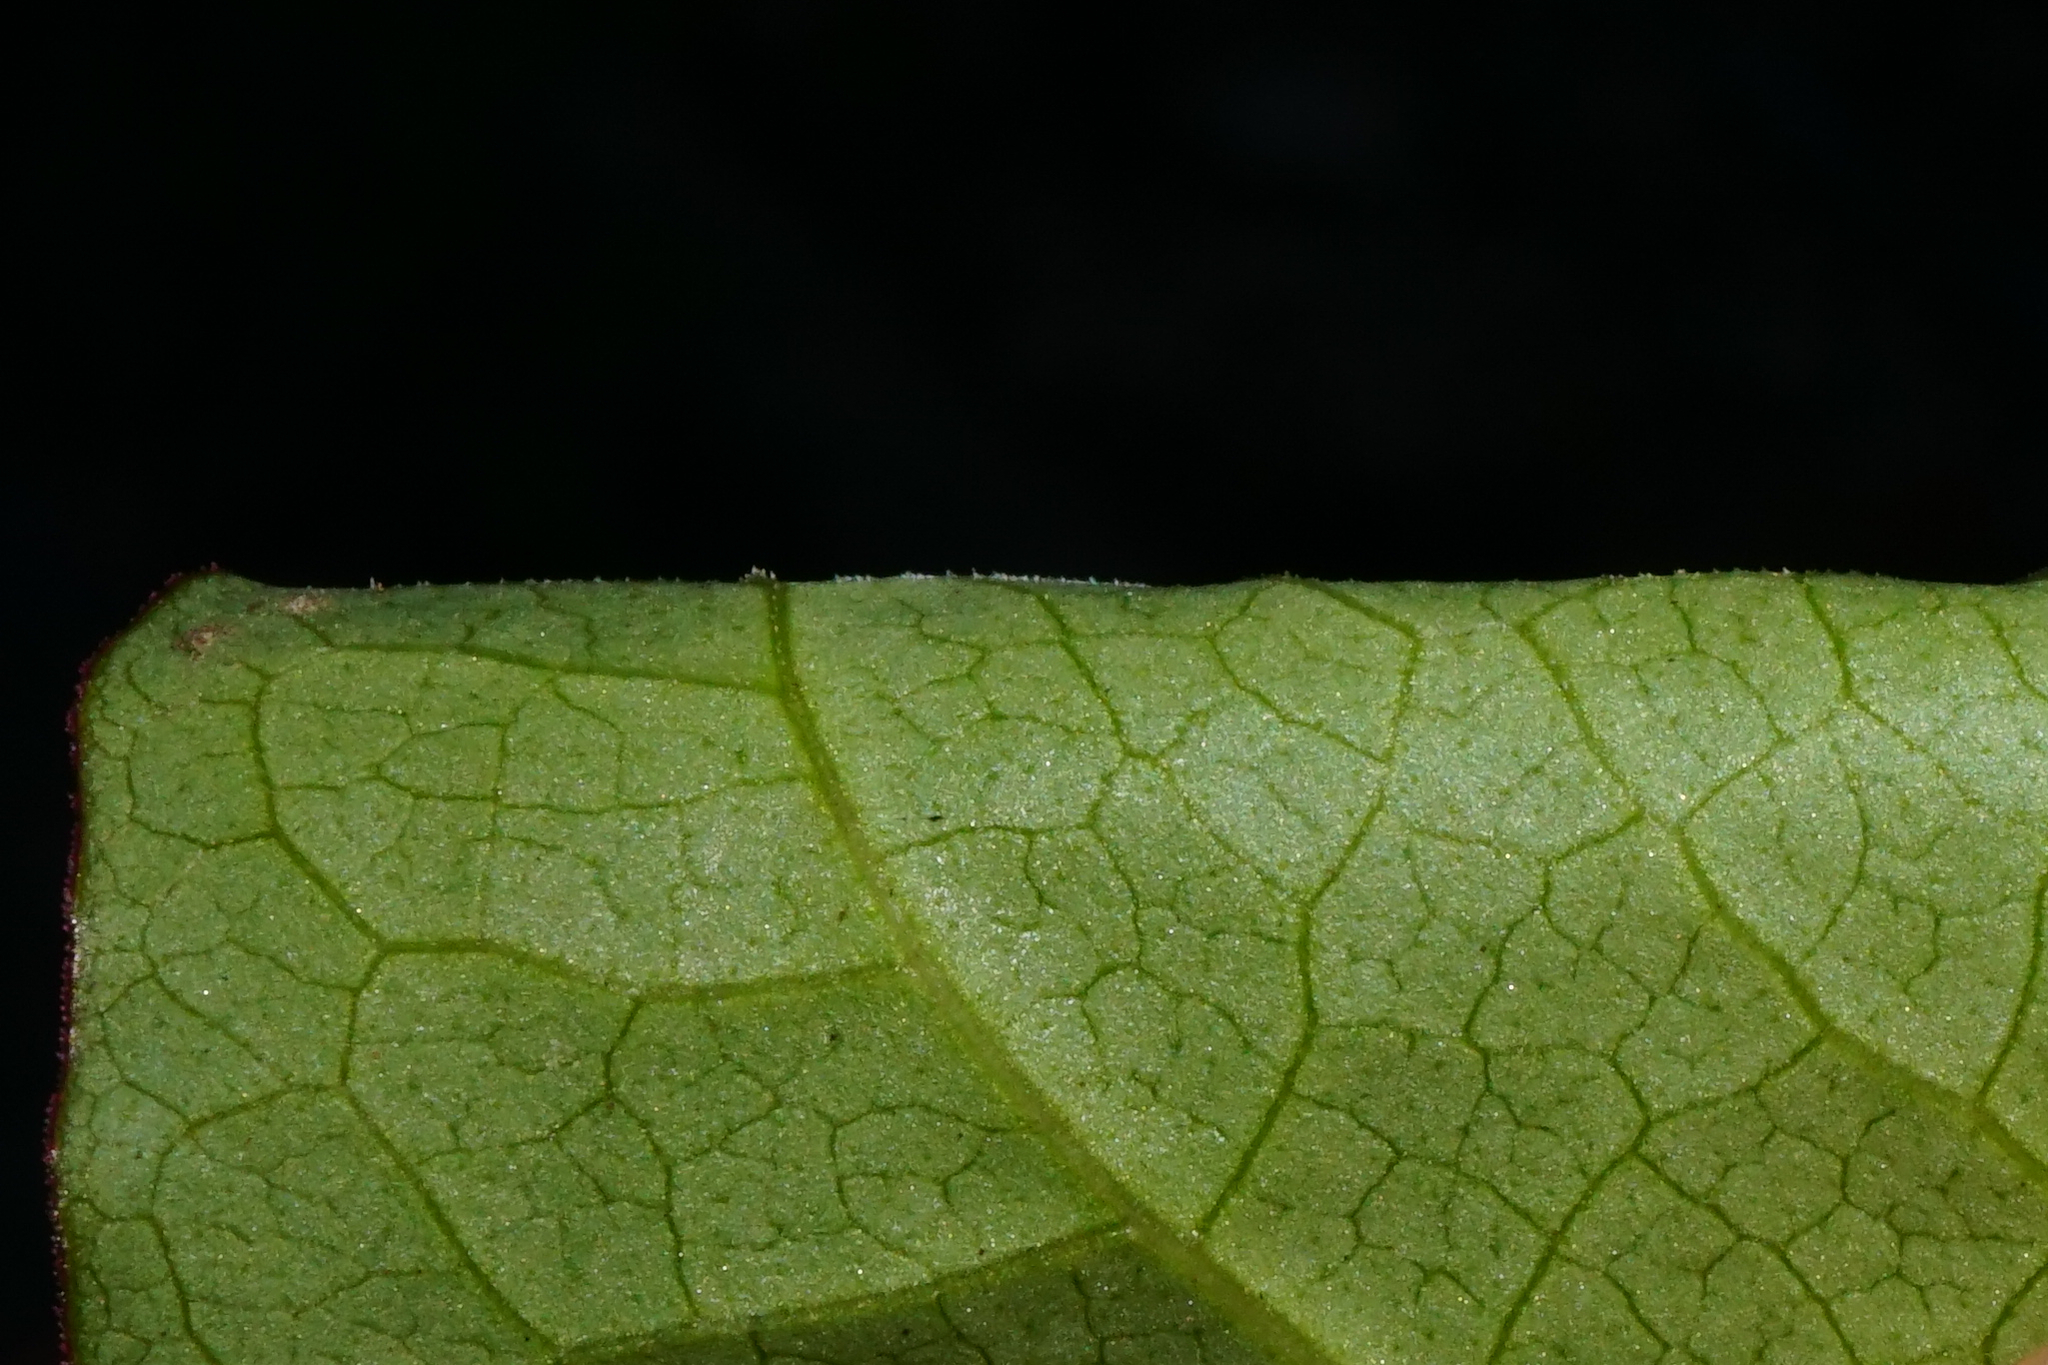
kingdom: Plantae
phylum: Tracheophyta
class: Magnoliopsida
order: Caryophyllales
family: Polygonaceae
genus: Reynoutria
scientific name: Reynoutria bohemica
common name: Bohemian knotweed
